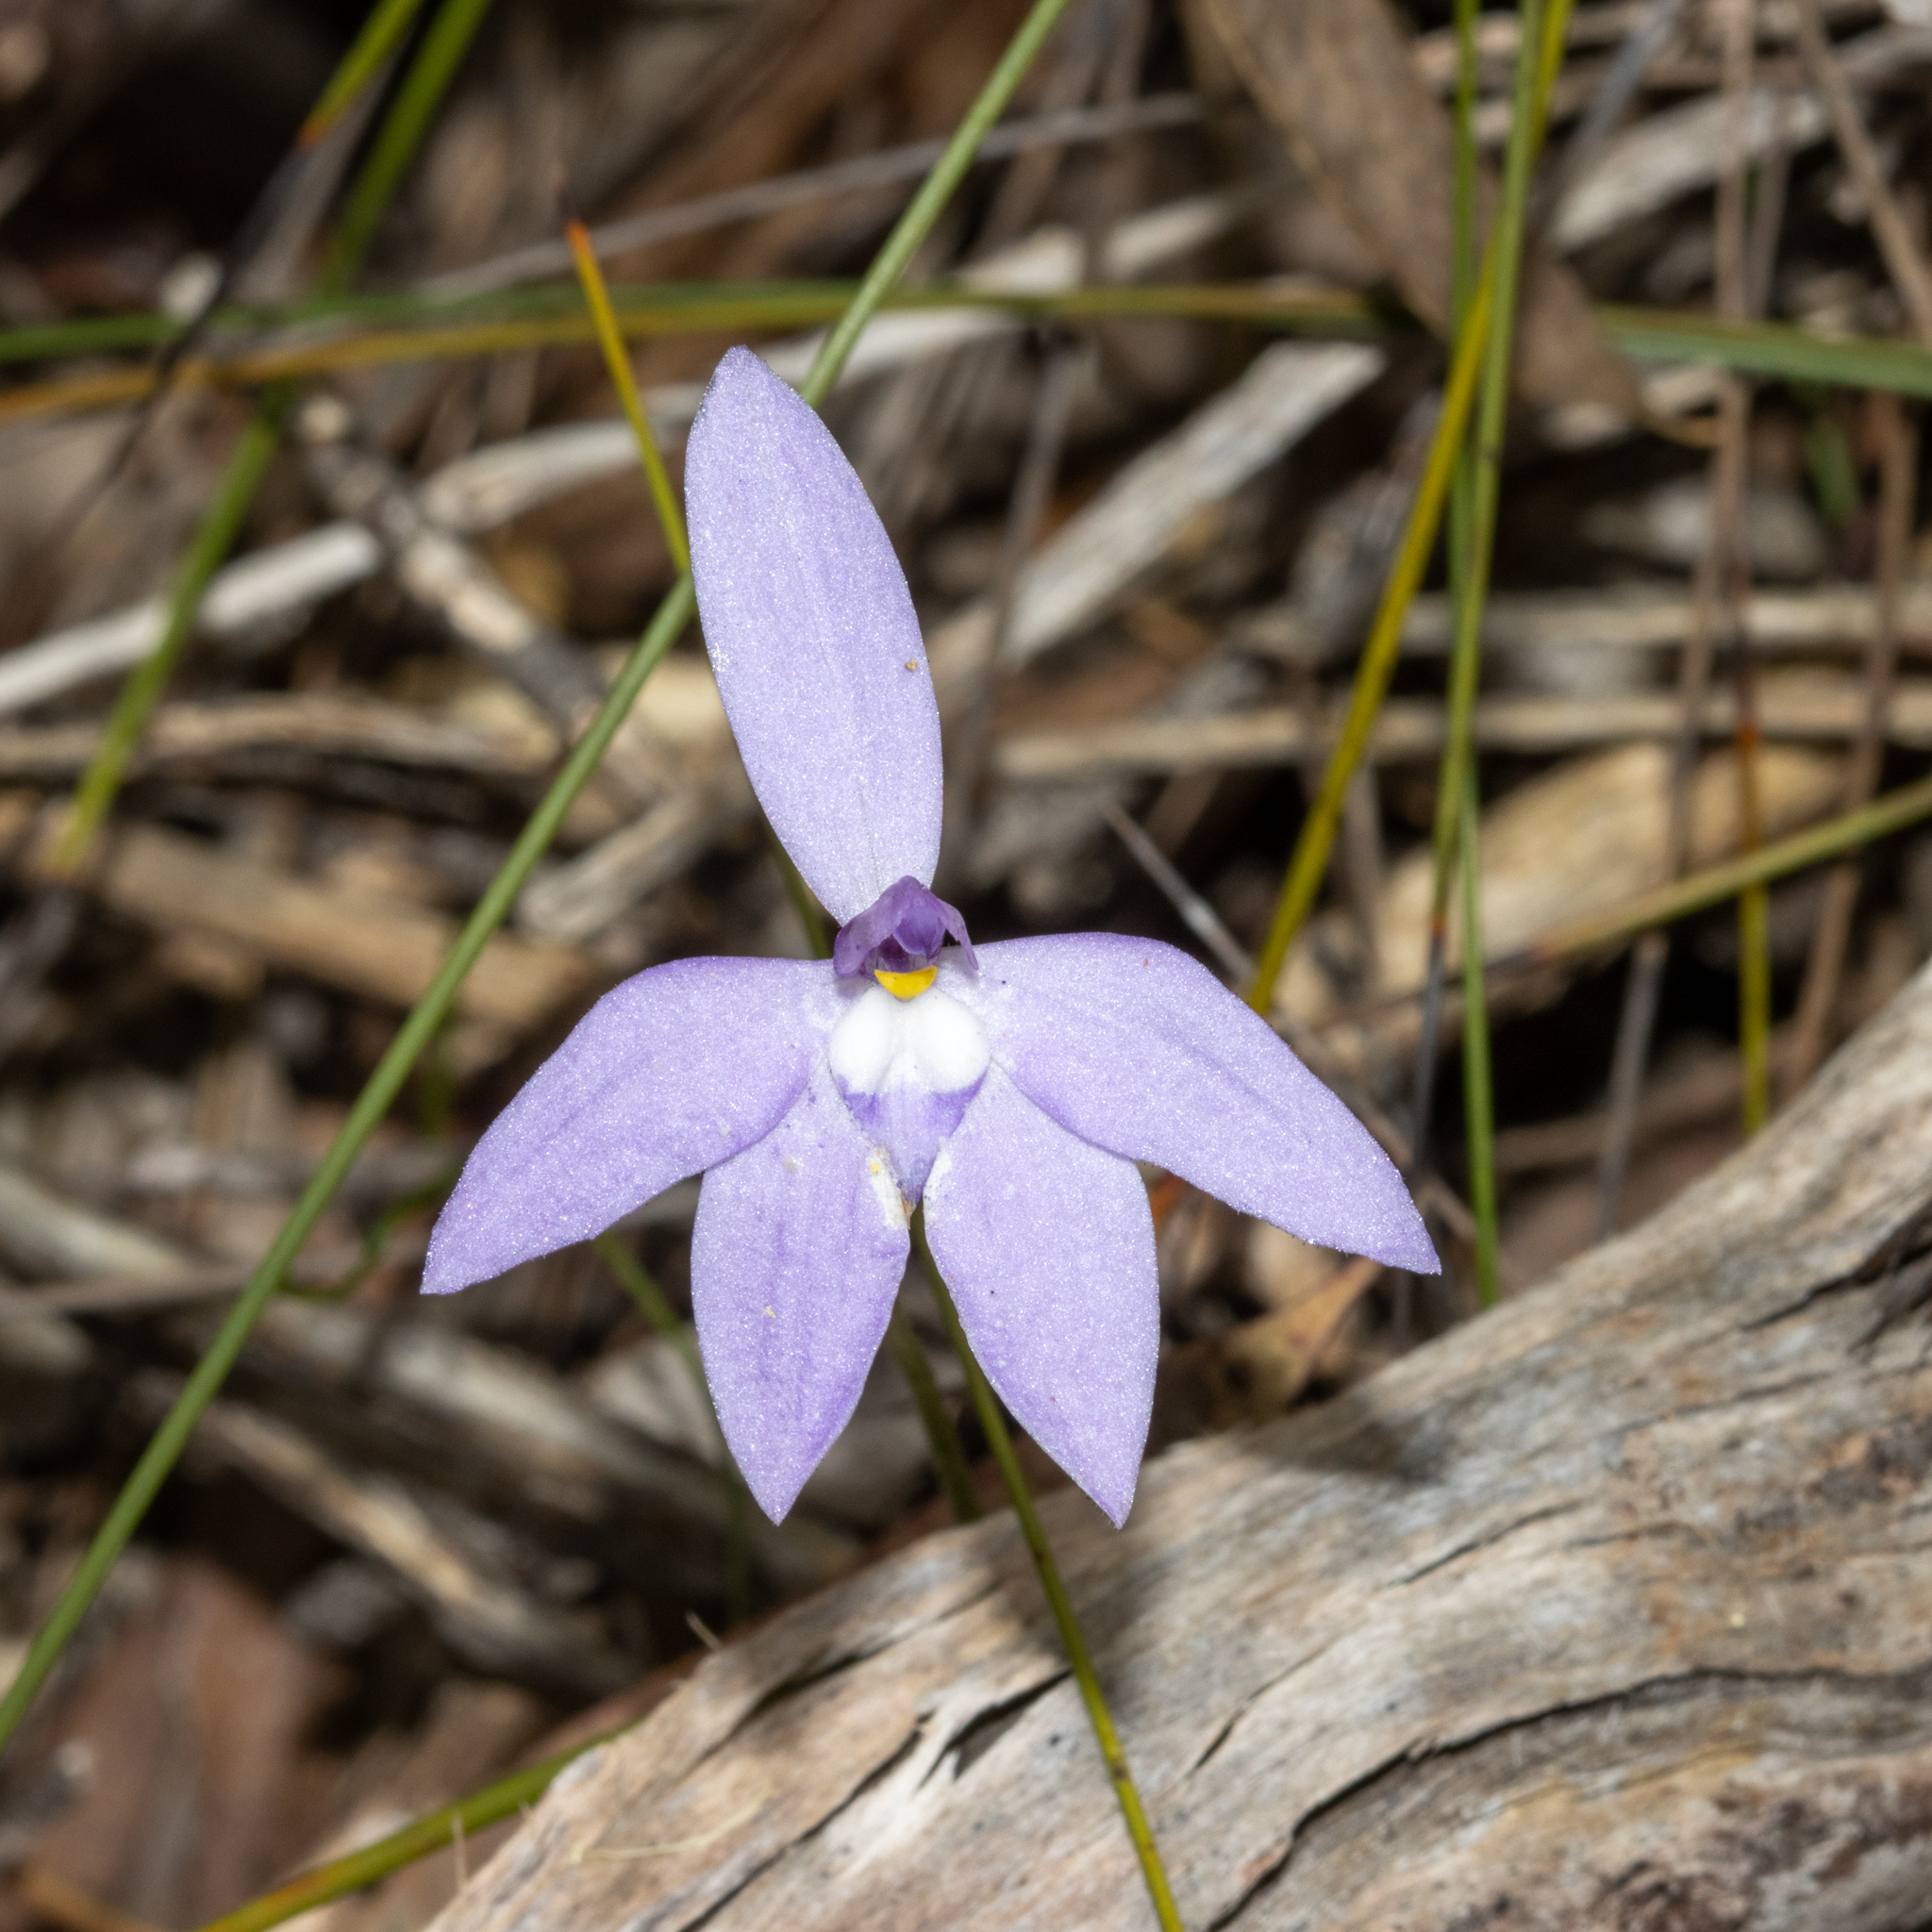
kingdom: Plantae
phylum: Tracheophyta
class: Liliopsida
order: Asparagales
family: Orchidaceae
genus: Caladenia
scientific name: Caladenia major
